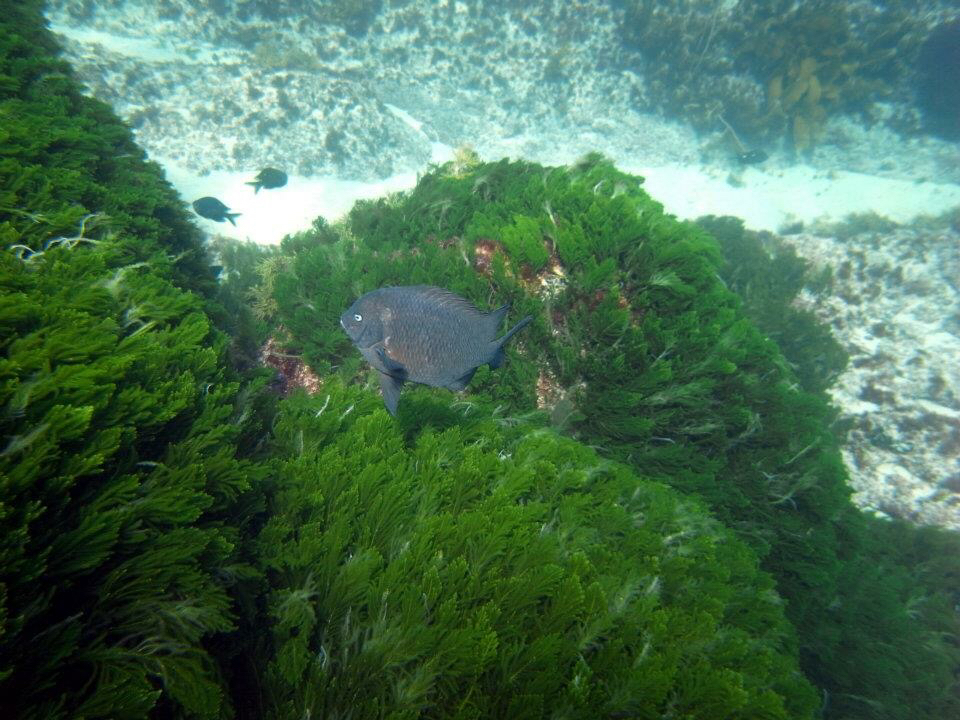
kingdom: Animalia
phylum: Chordata
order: Perciformes
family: Pomacentridae
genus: Parma
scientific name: Parma alboscapularis
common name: Black angelfish
